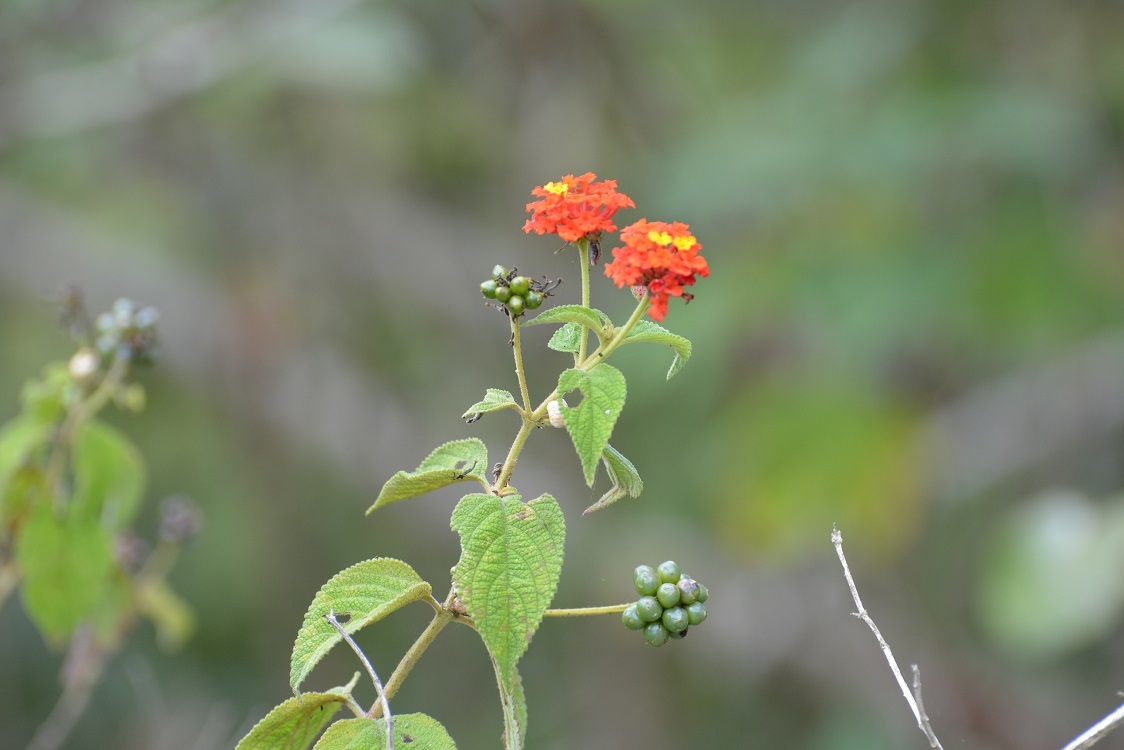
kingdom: Plantae
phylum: Tracheophyta
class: Magnoliopsida
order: Lamiales
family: Verbenaceae
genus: Lantana
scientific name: Lantana camara
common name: Lantana
